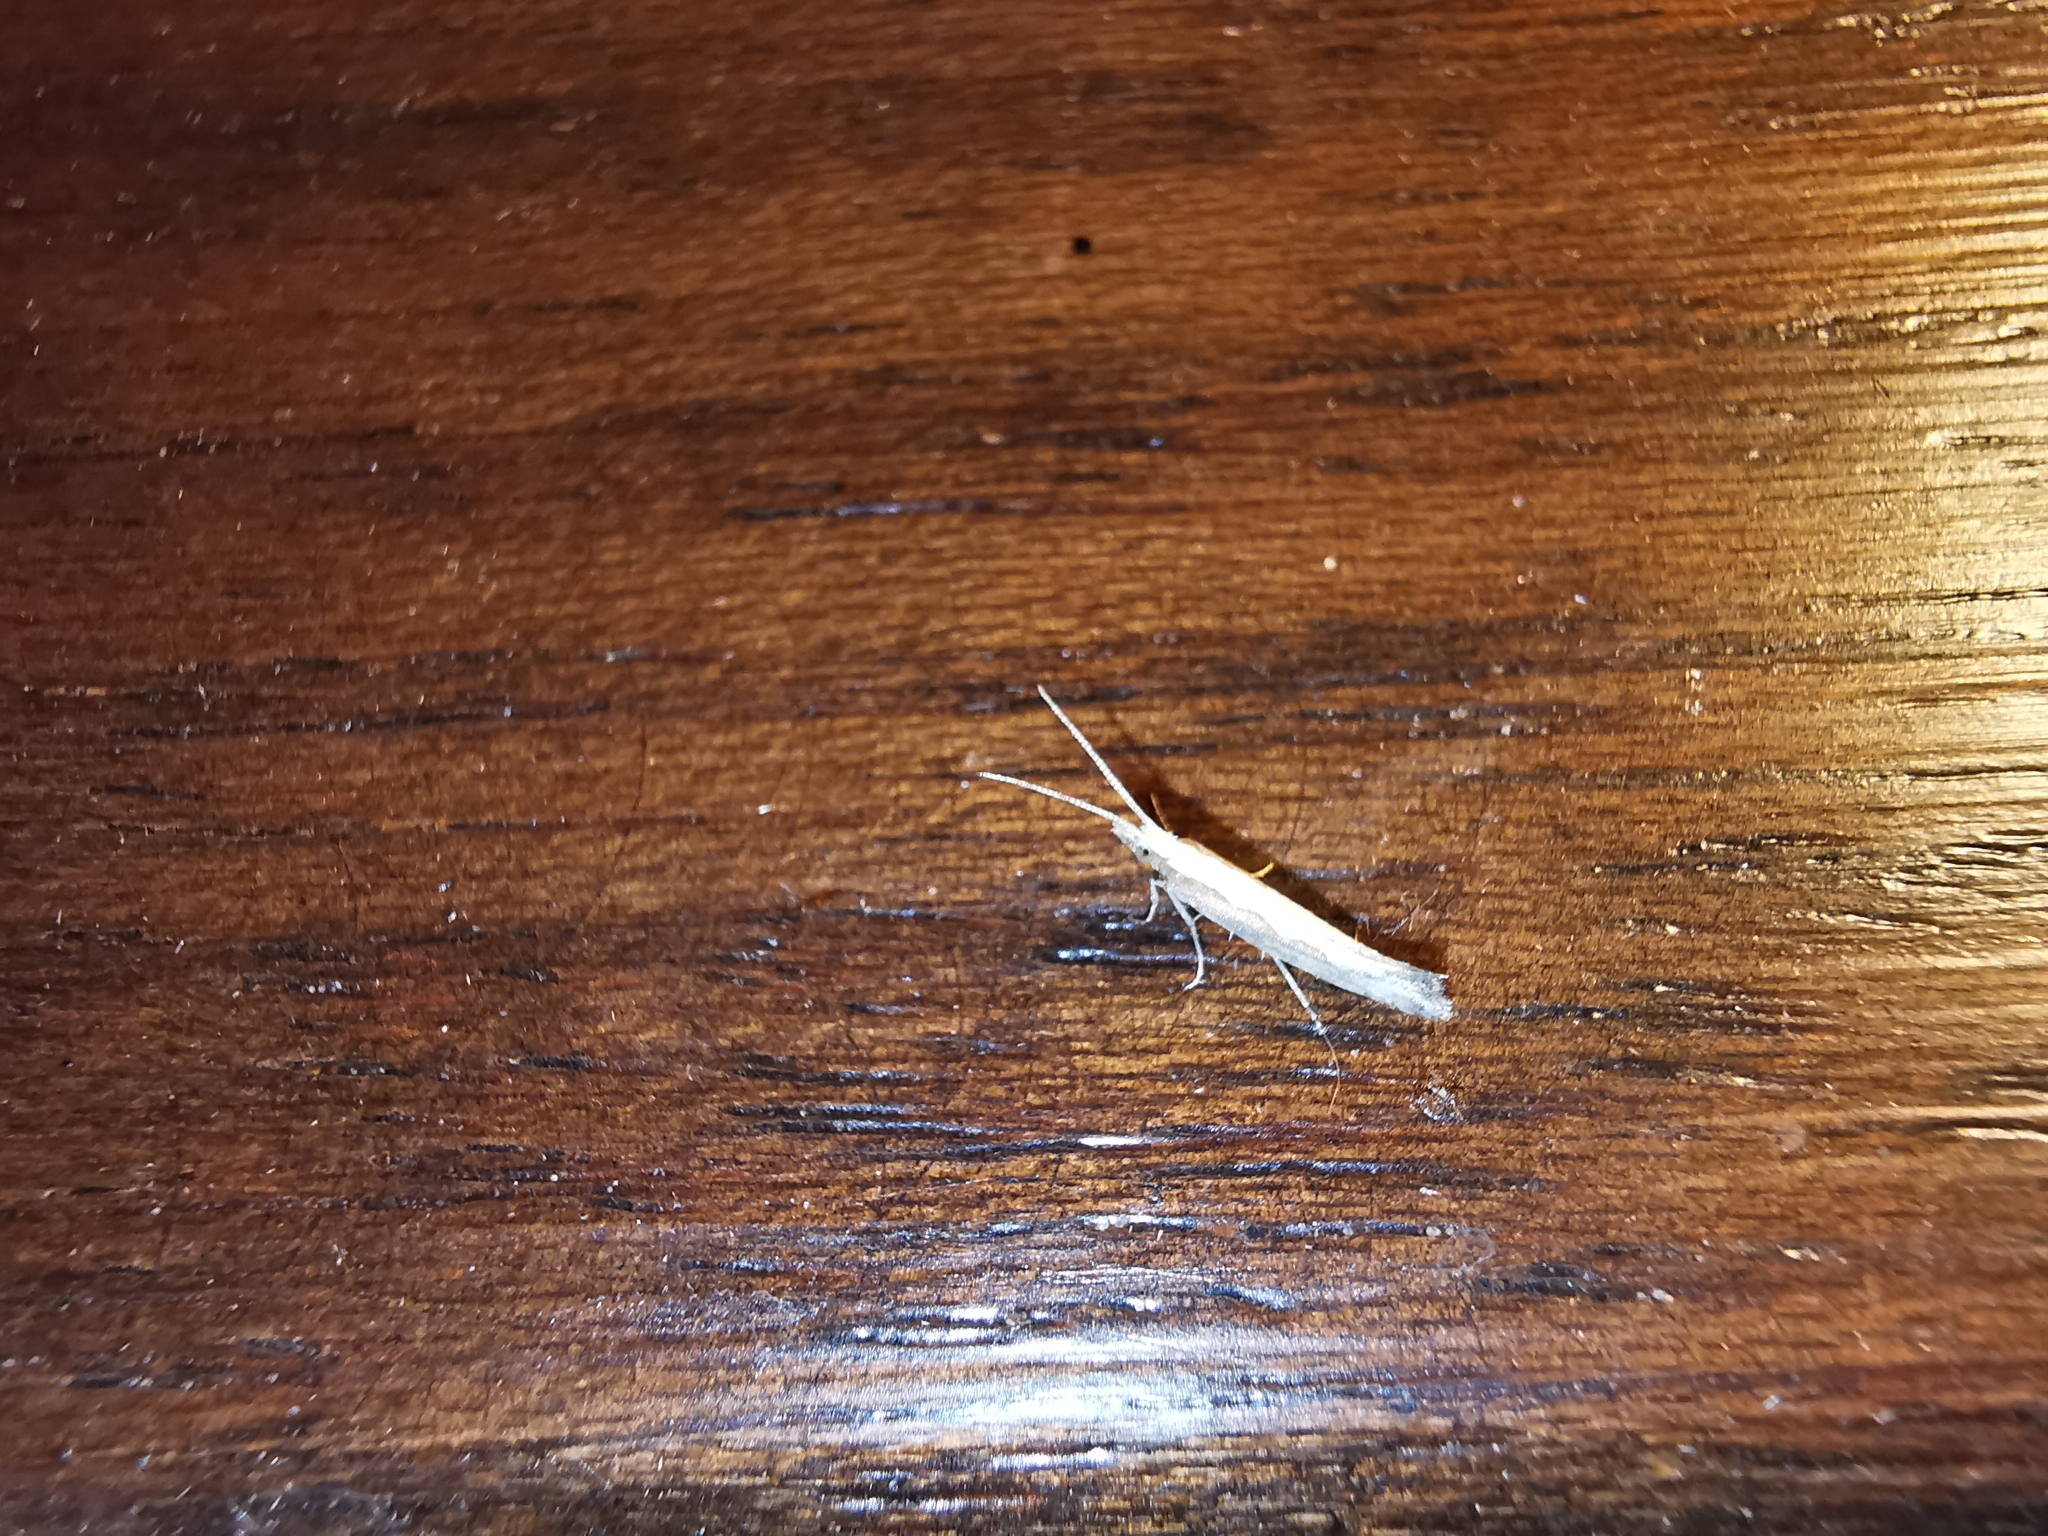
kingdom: Animalia
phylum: Arthropoda
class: Insecta
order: Lepidoptera
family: Plutellidae
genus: Plutella
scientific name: Plutella xylostella
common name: Diamond-back moth
